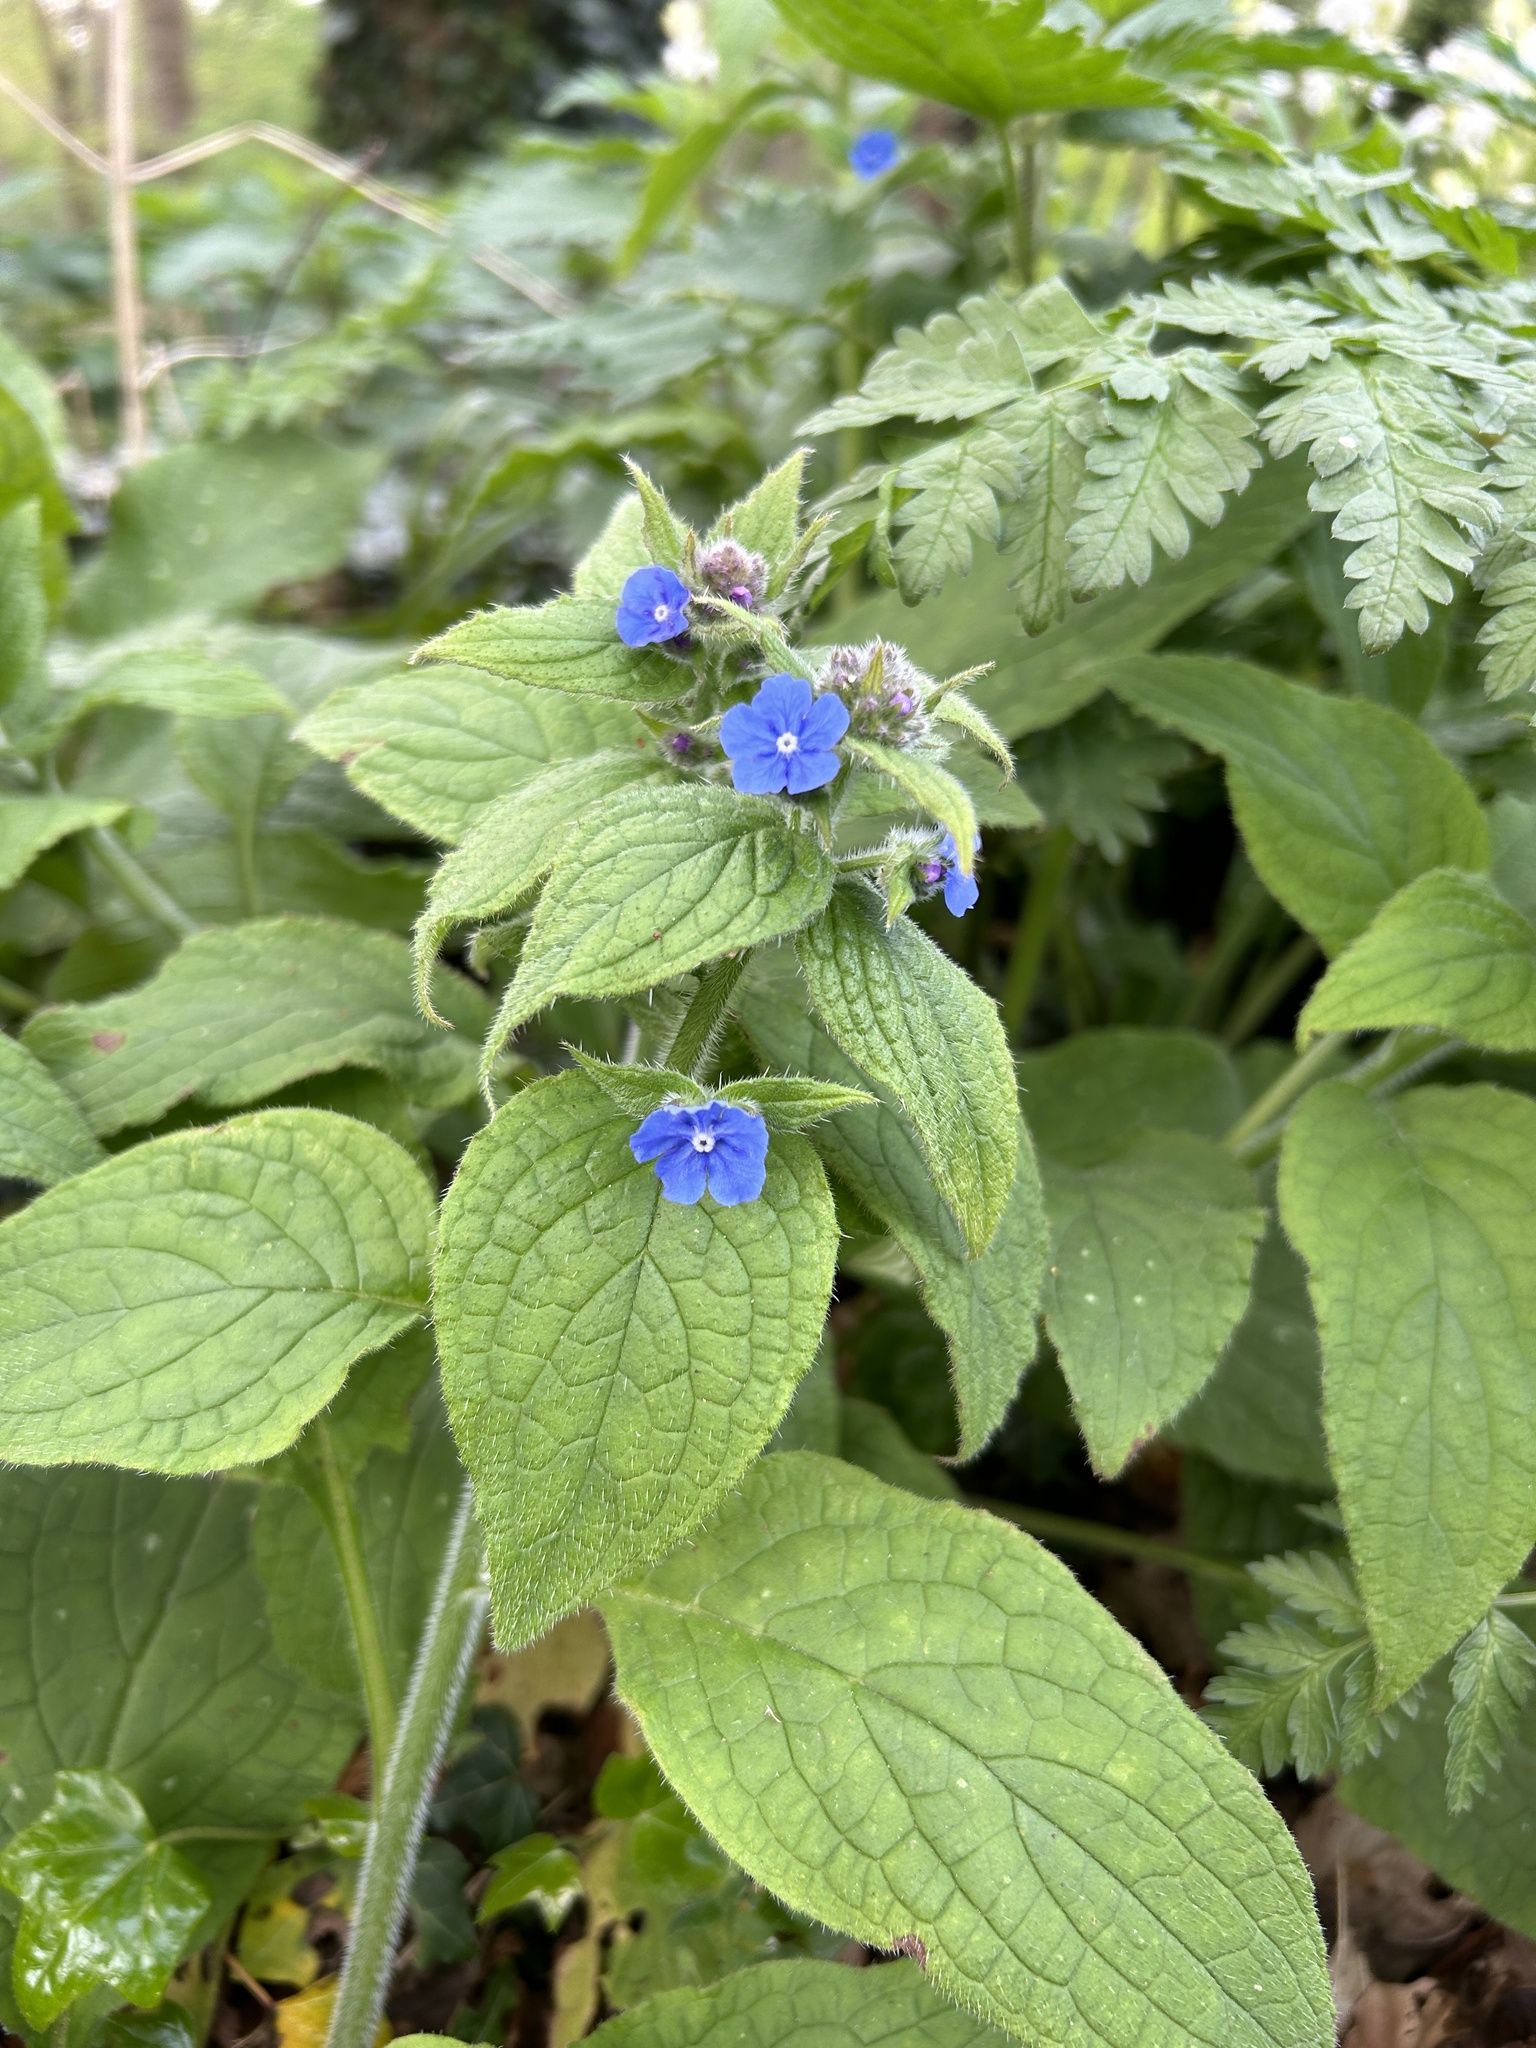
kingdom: Plantae
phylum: Tracheophyta
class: Magnoliopsida
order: Boraginales
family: Boraginaceae
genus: Pentaglottis
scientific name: Pentaglottis sempervirens
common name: Green alkanet
